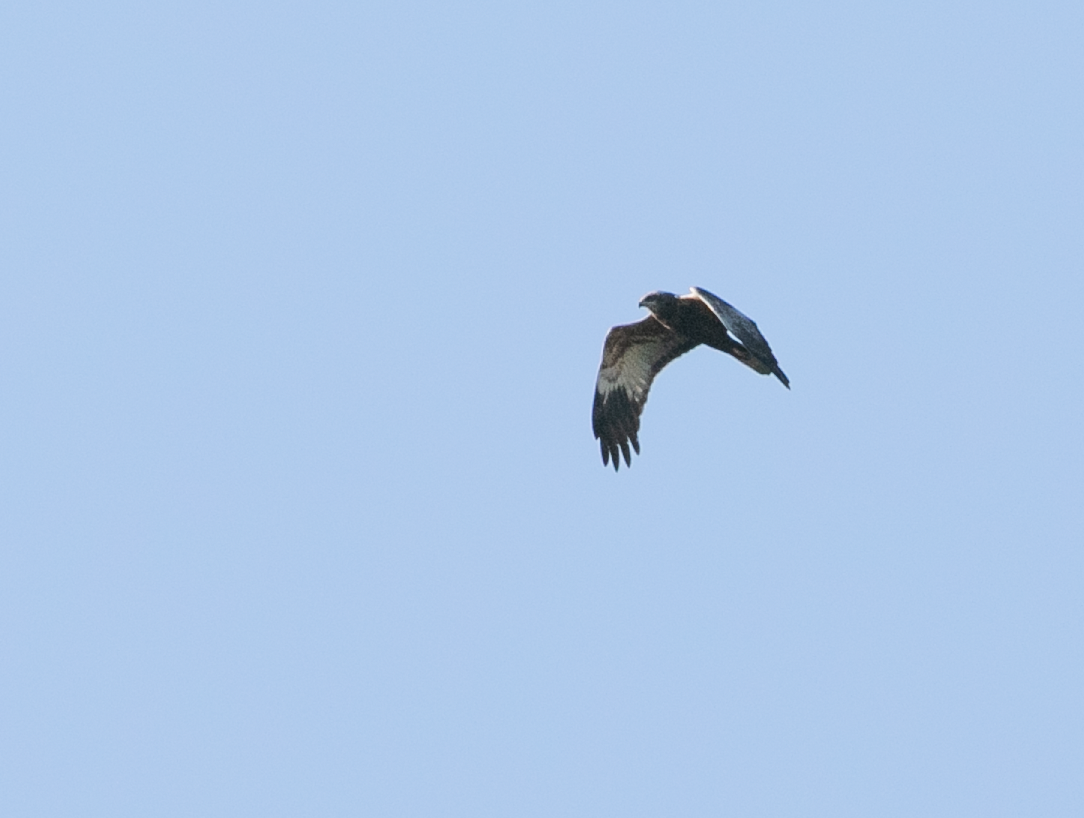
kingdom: Animalia
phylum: Chordata
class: Aves
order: Accipitriformes
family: Accipitridae
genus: Circus
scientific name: Circus aeruginosus
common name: Western marsh harrier
